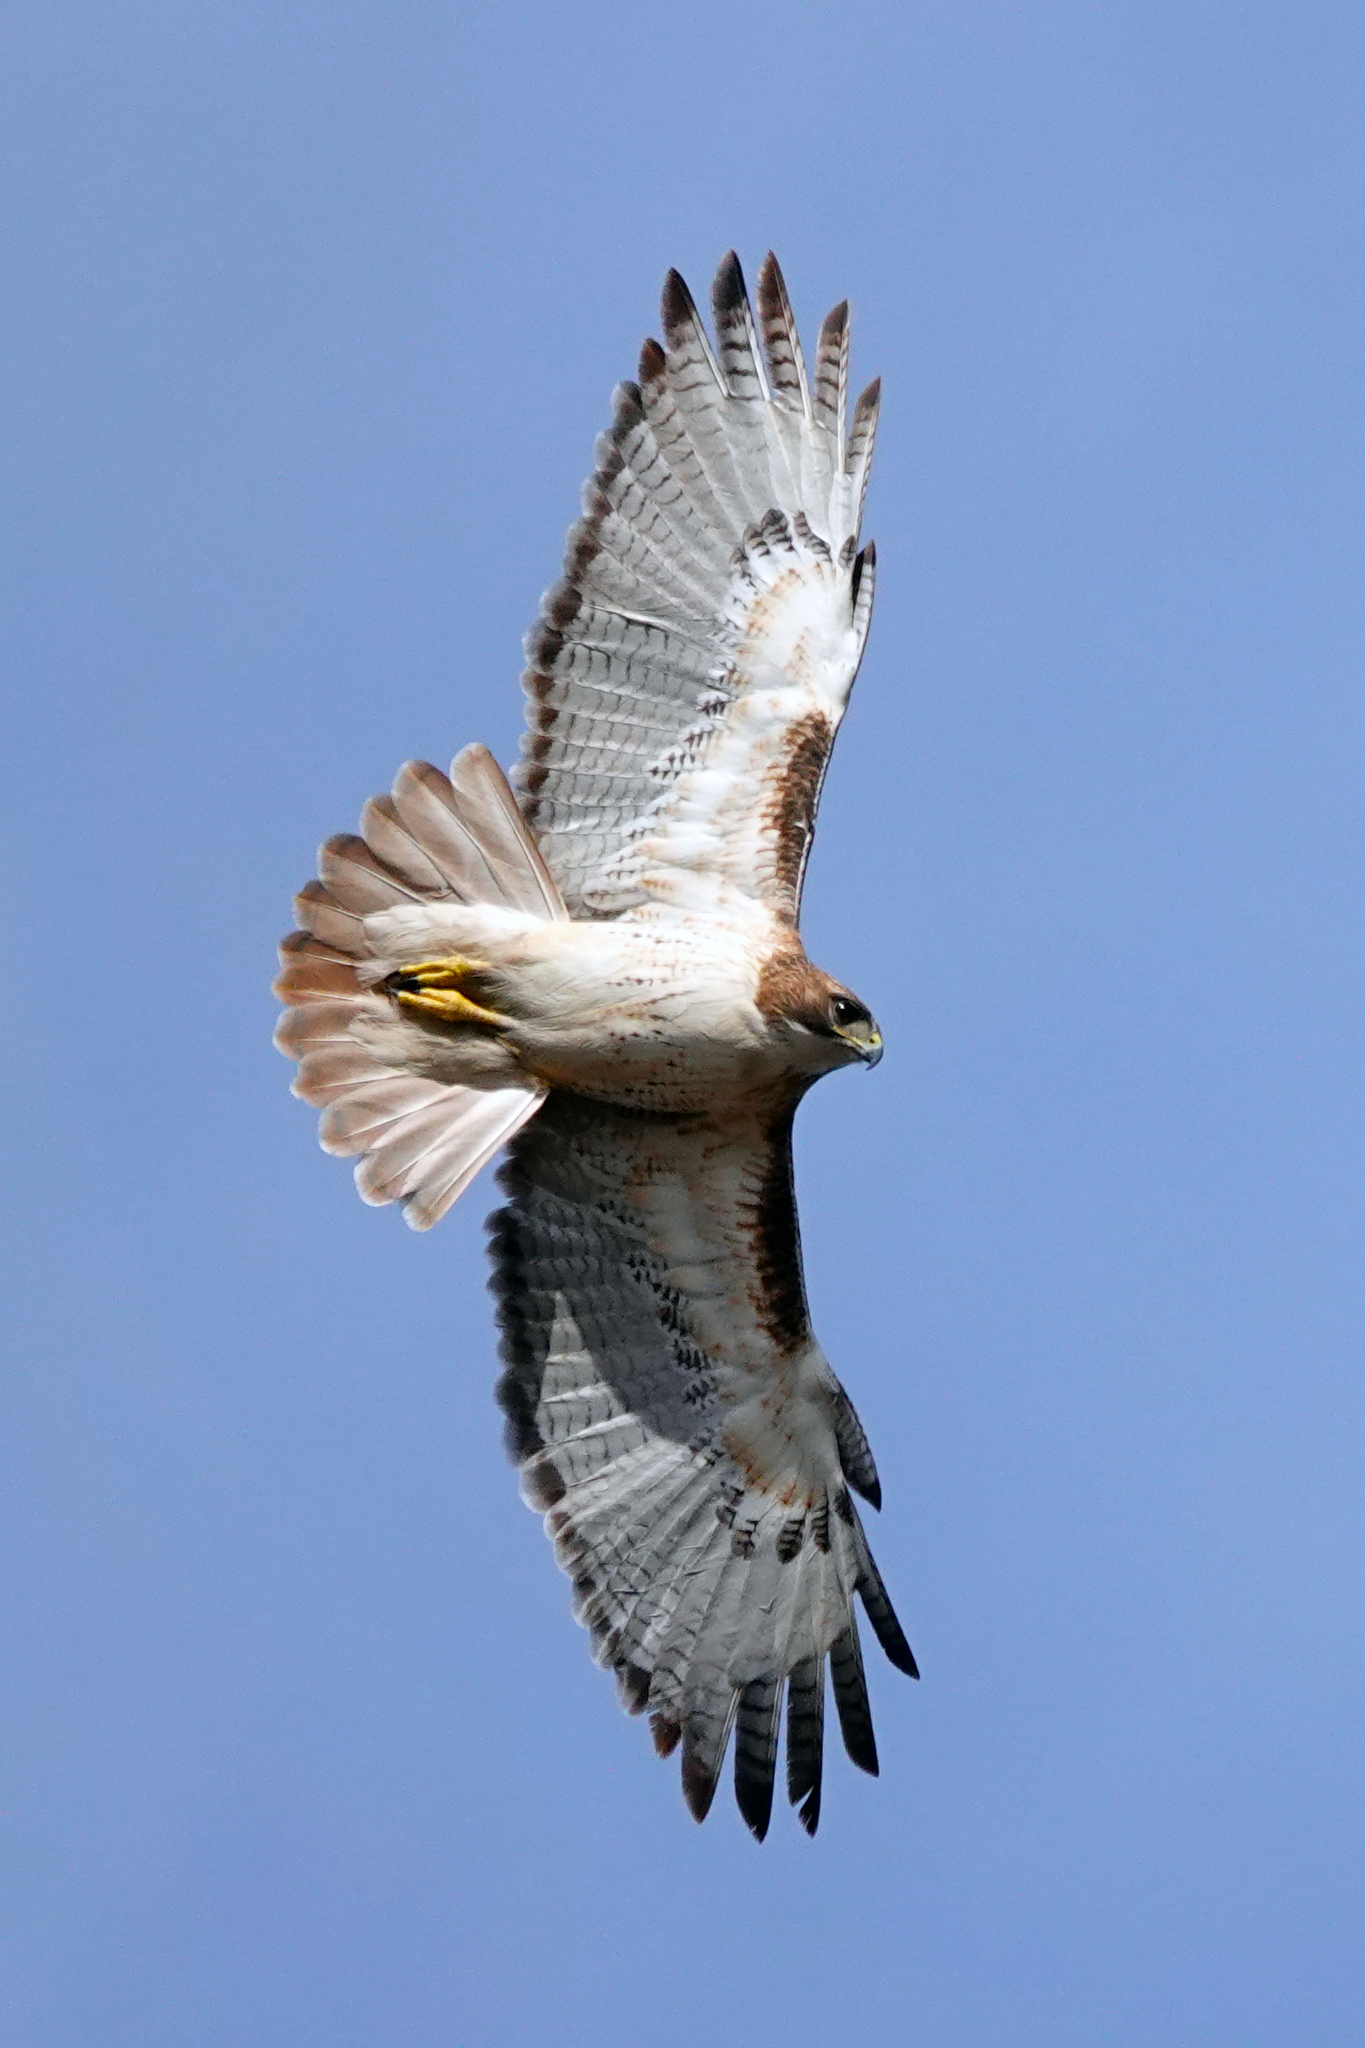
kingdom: Animalia
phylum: Chordata
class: Aves
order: Accipitriformes
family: Accipitridae
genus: Buteo
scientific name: Buteo jamaicensis
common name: Red-tailed hawk
